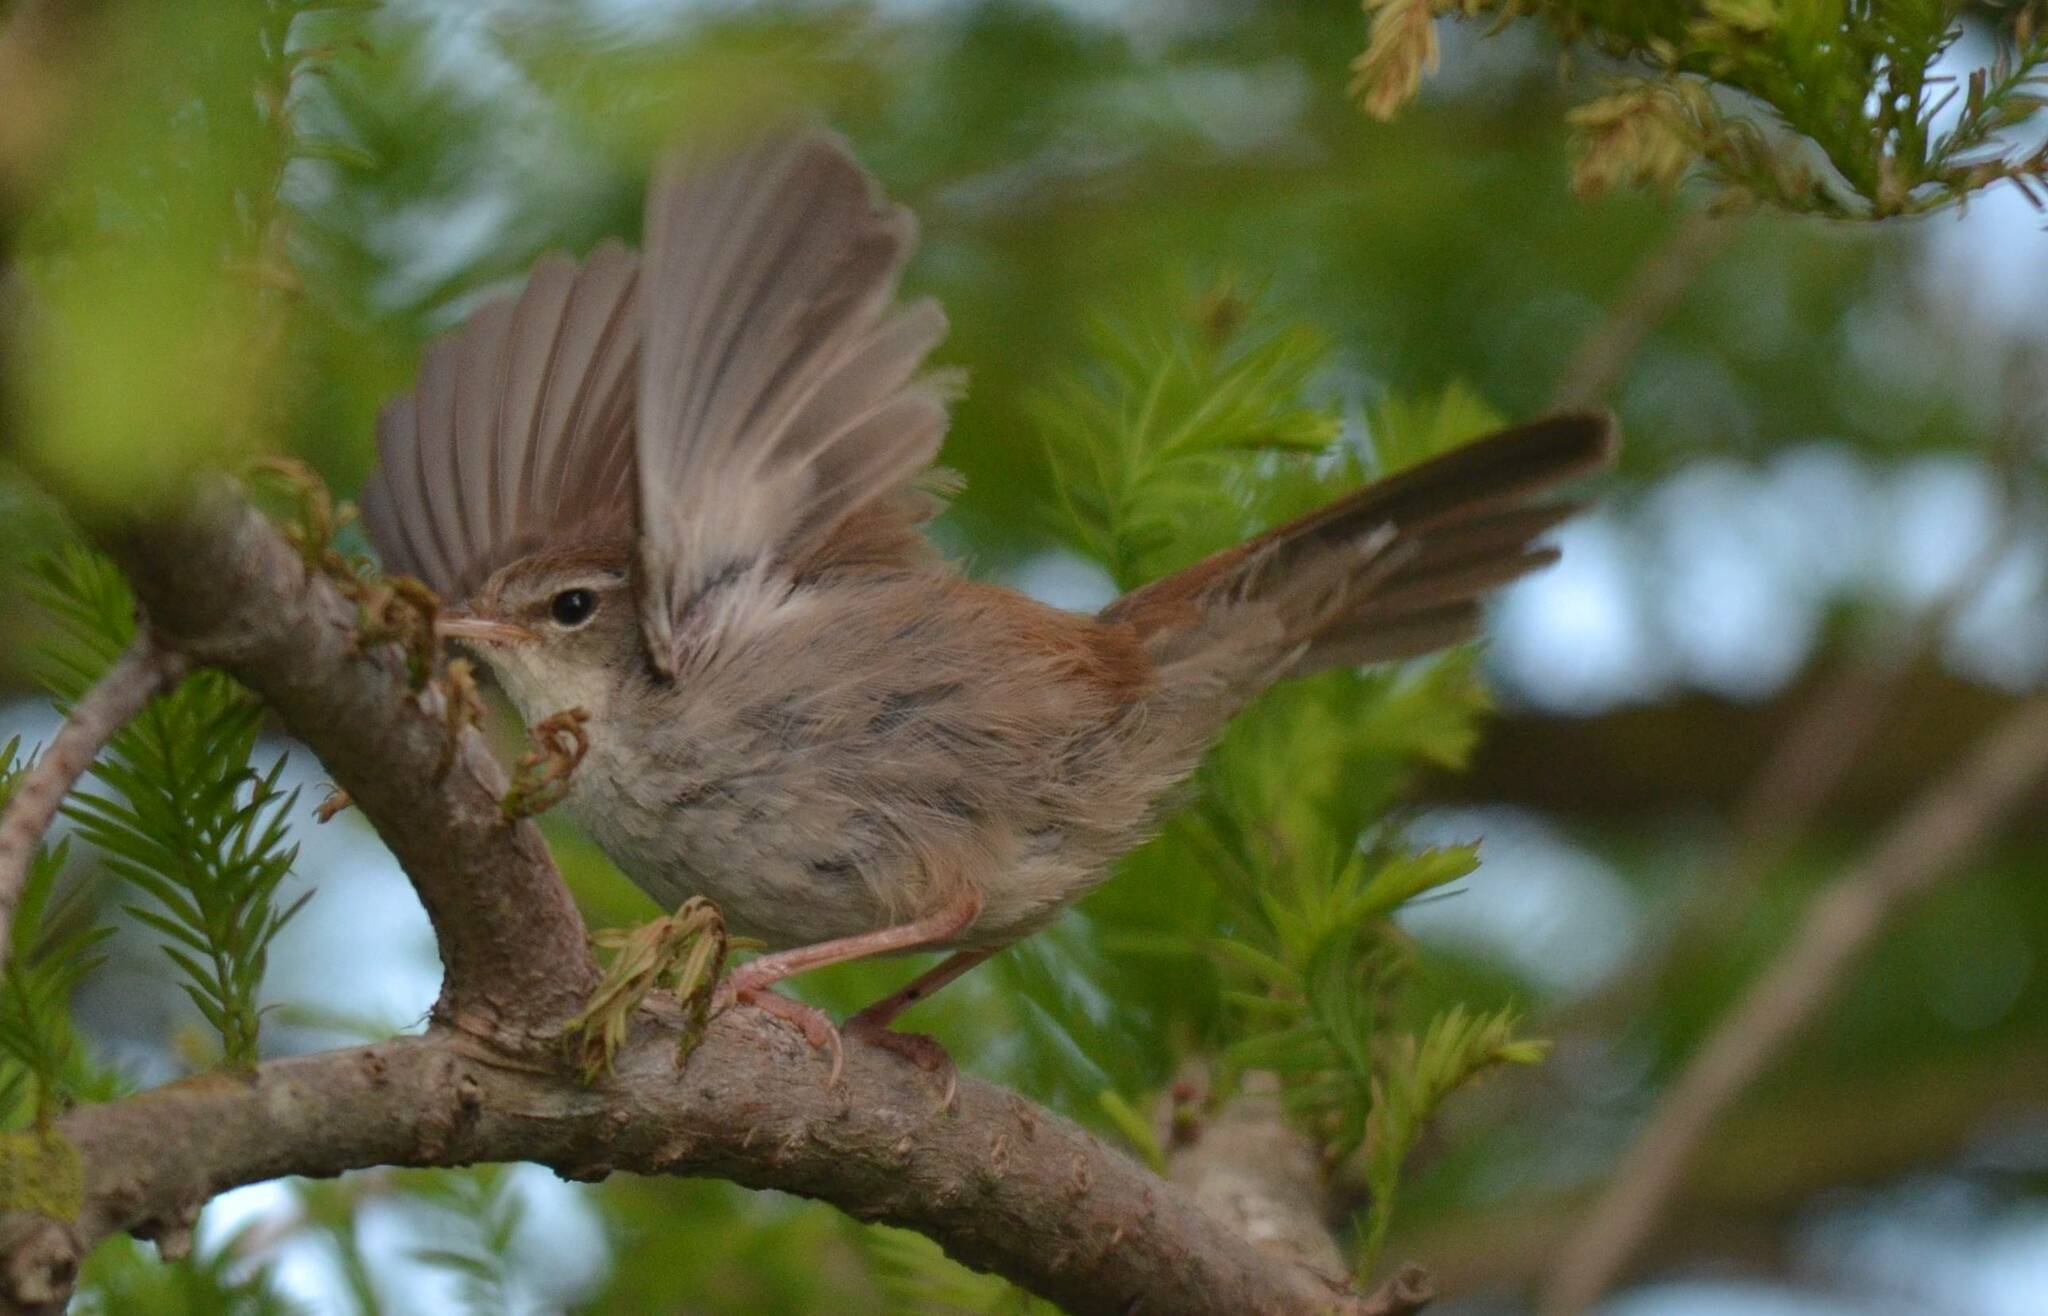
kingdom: Animalia
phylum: Chordata
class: Aves
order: Passeriformes
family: Cettiidae
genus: Cettia
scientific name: Cettia cetti
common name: Cetti's warbler
